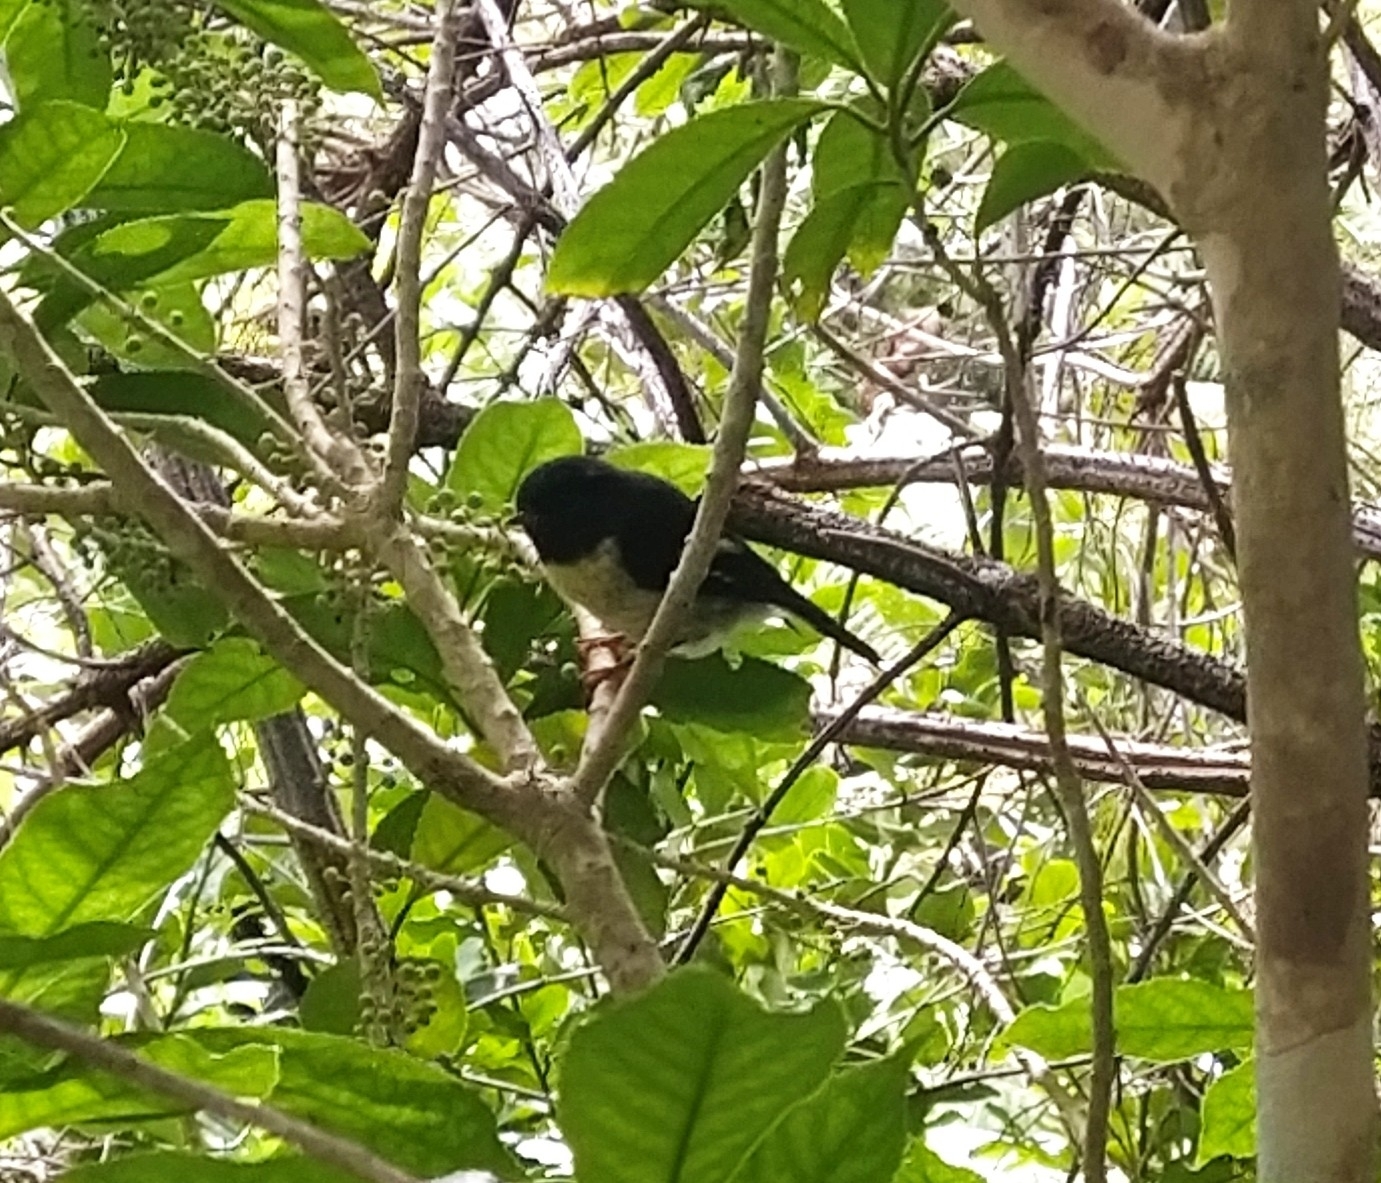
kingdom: Animalia
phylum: Chordata
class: Aves
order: Passeriformes
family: Petroicidae
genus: Petroica
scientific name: Petroica macrocephala
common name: Tomtit
